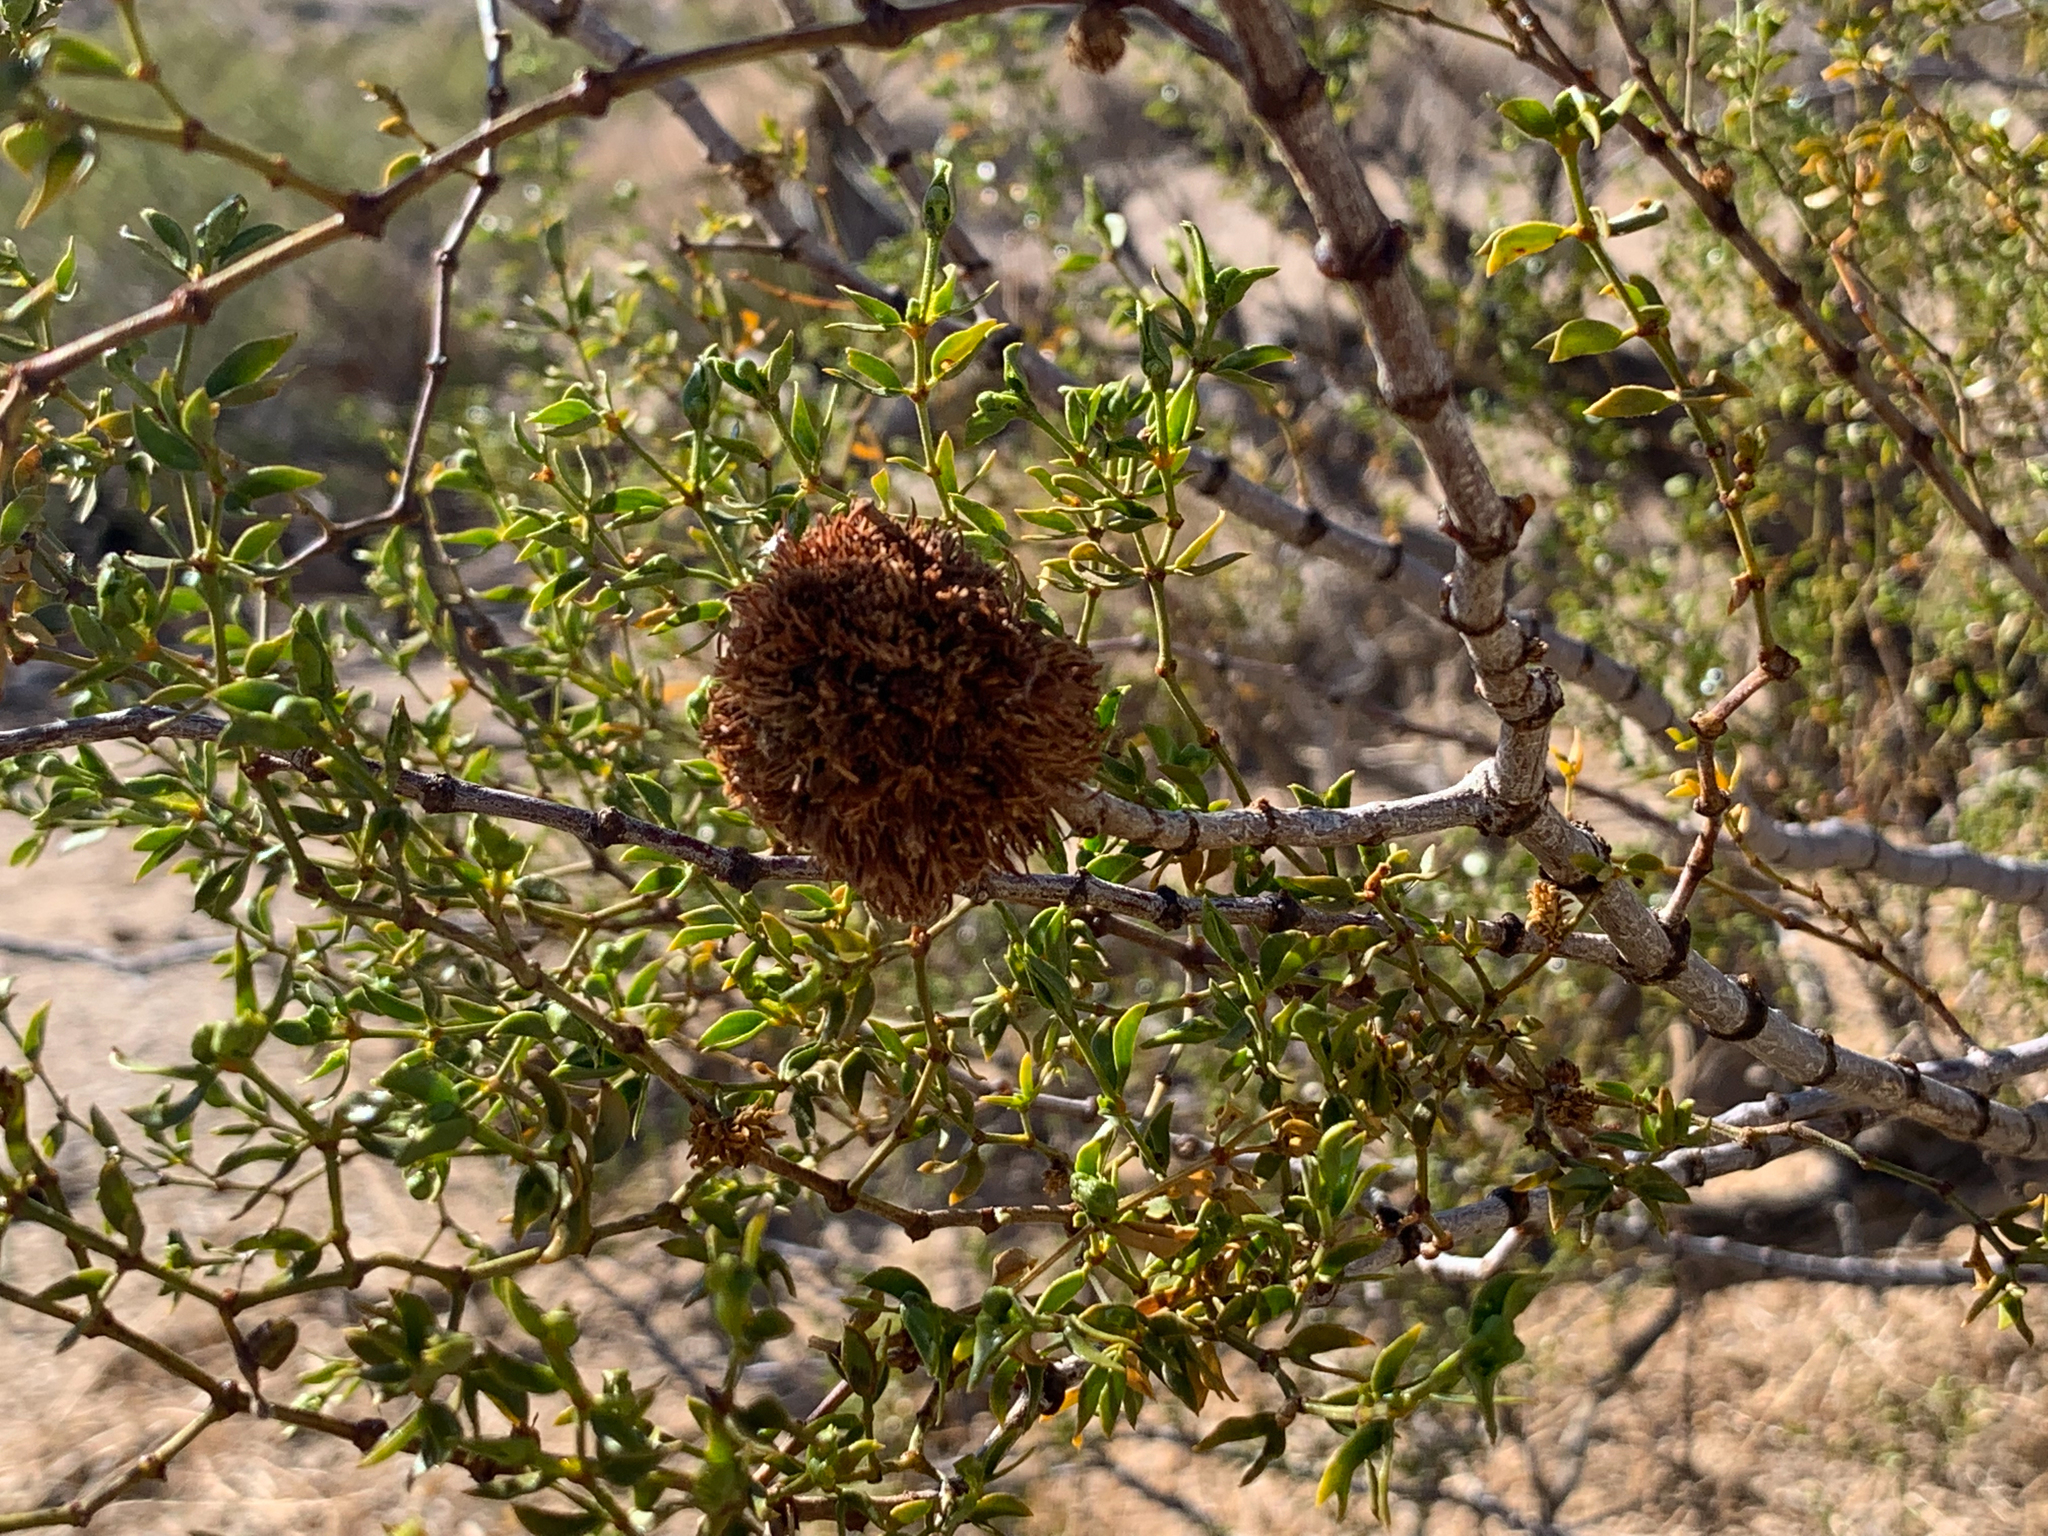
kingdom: Animalia
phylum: Arthropoda
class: Insecta
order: Diptera
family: Cecidomyiidae
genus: Asphondylia
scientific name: Asphondylia auripila
